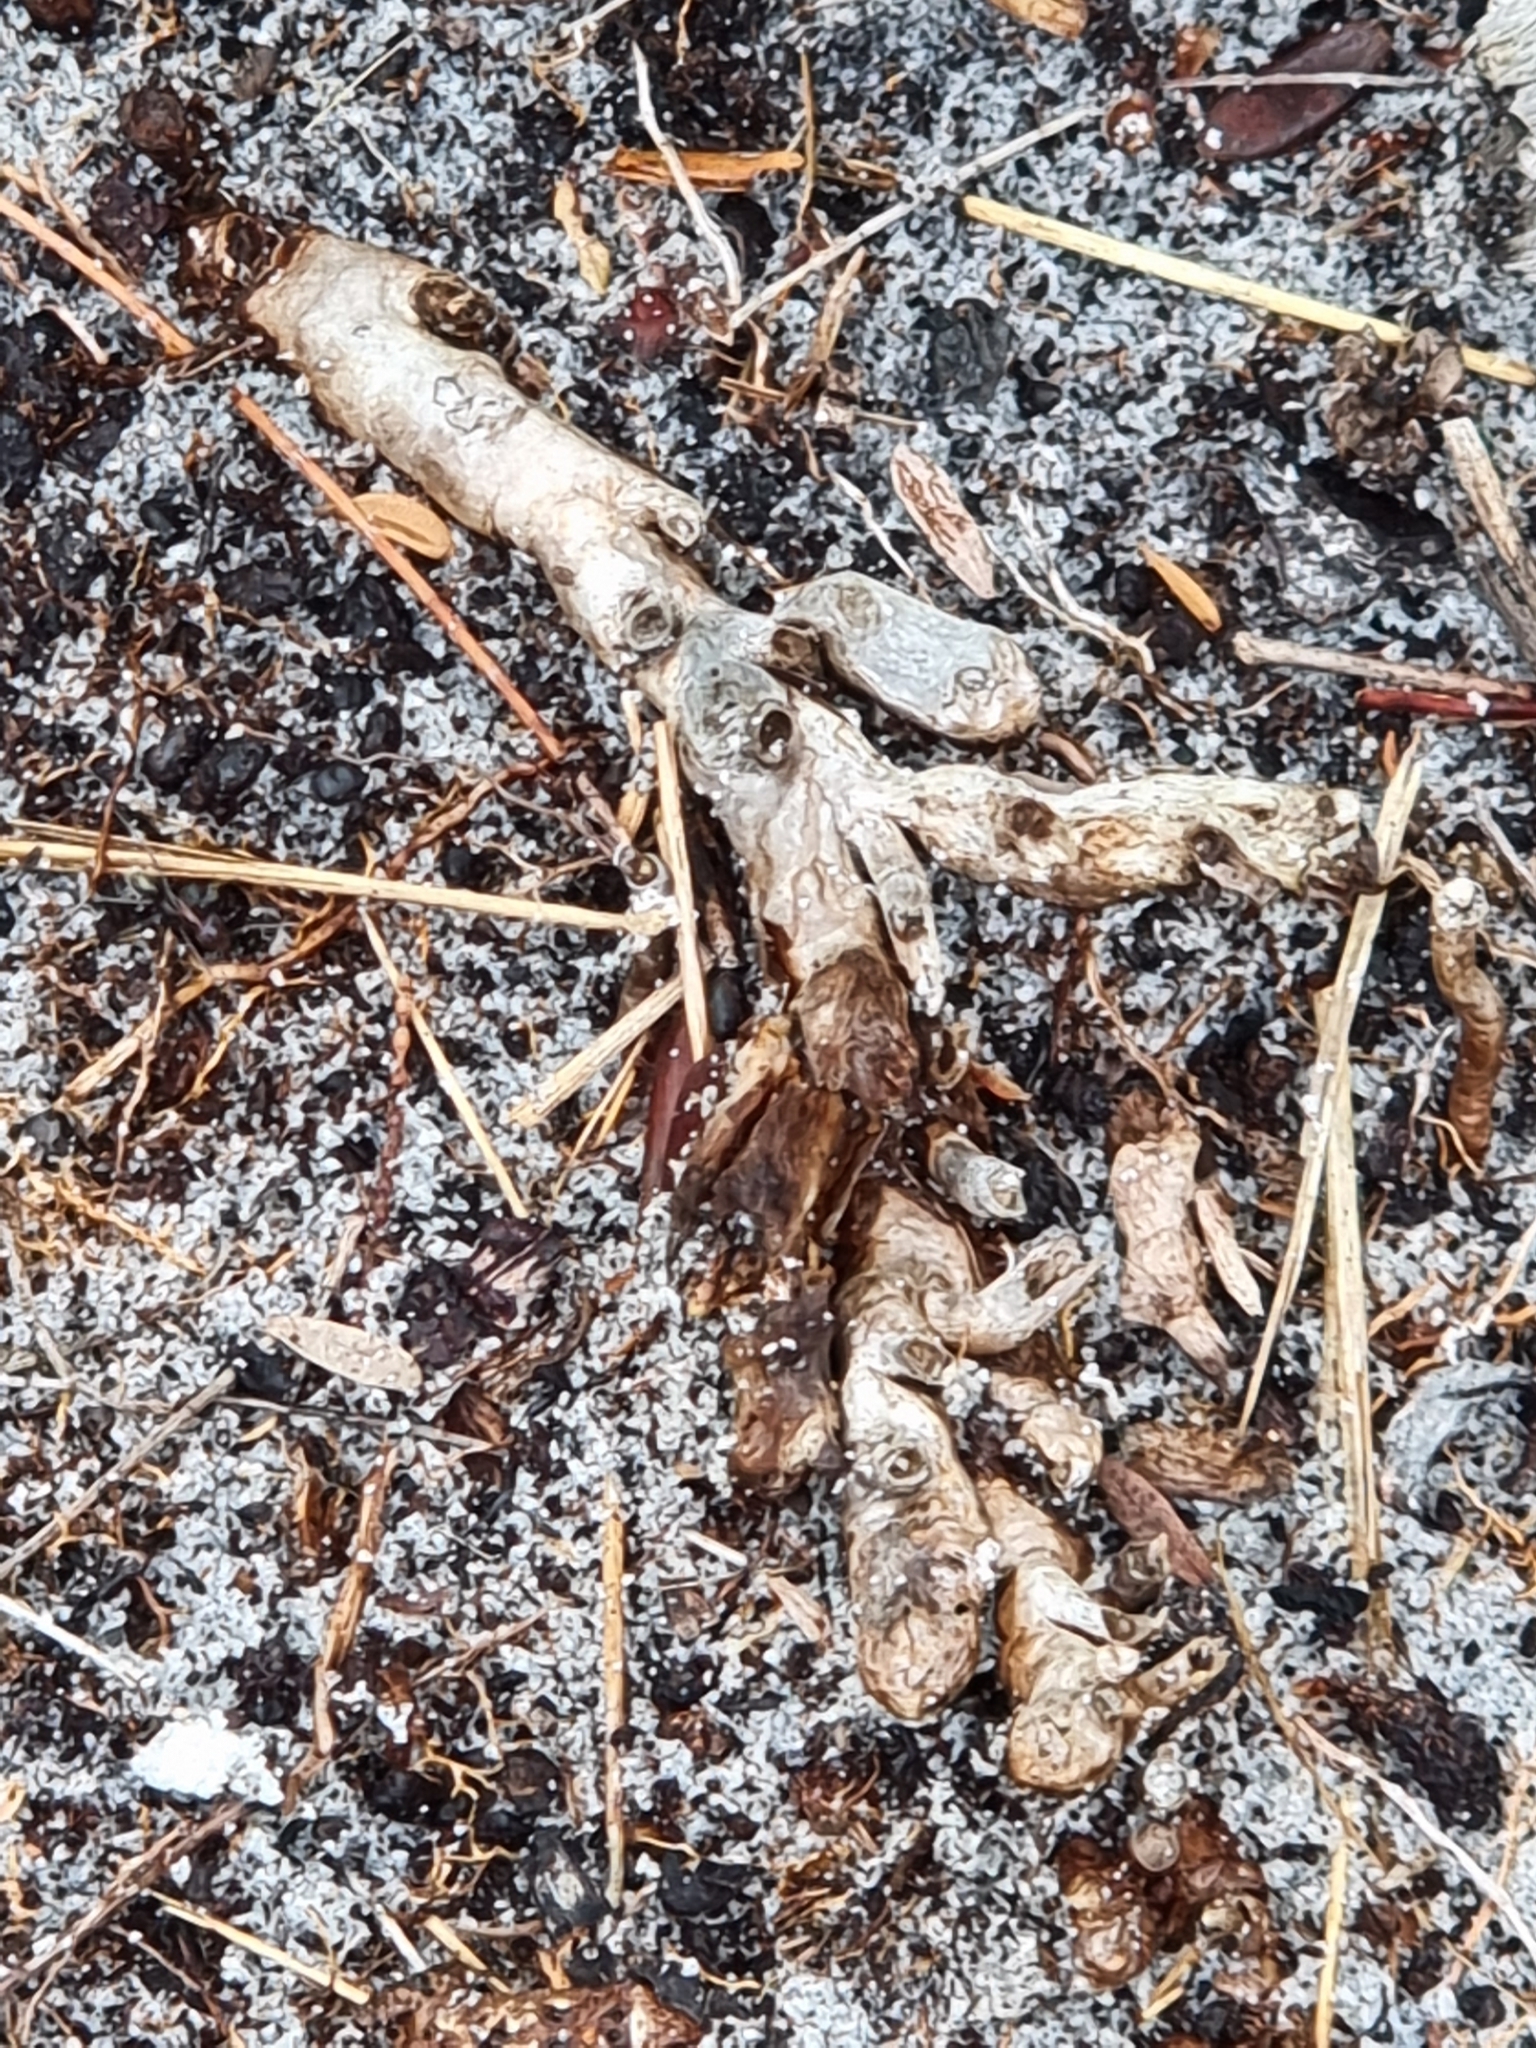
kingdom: Animalia
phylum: Chordata
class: Amphibia
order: Anura
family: Myobatrachidae
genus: Crinia
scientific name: Crinia tinnula
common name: Tinkling froglet
